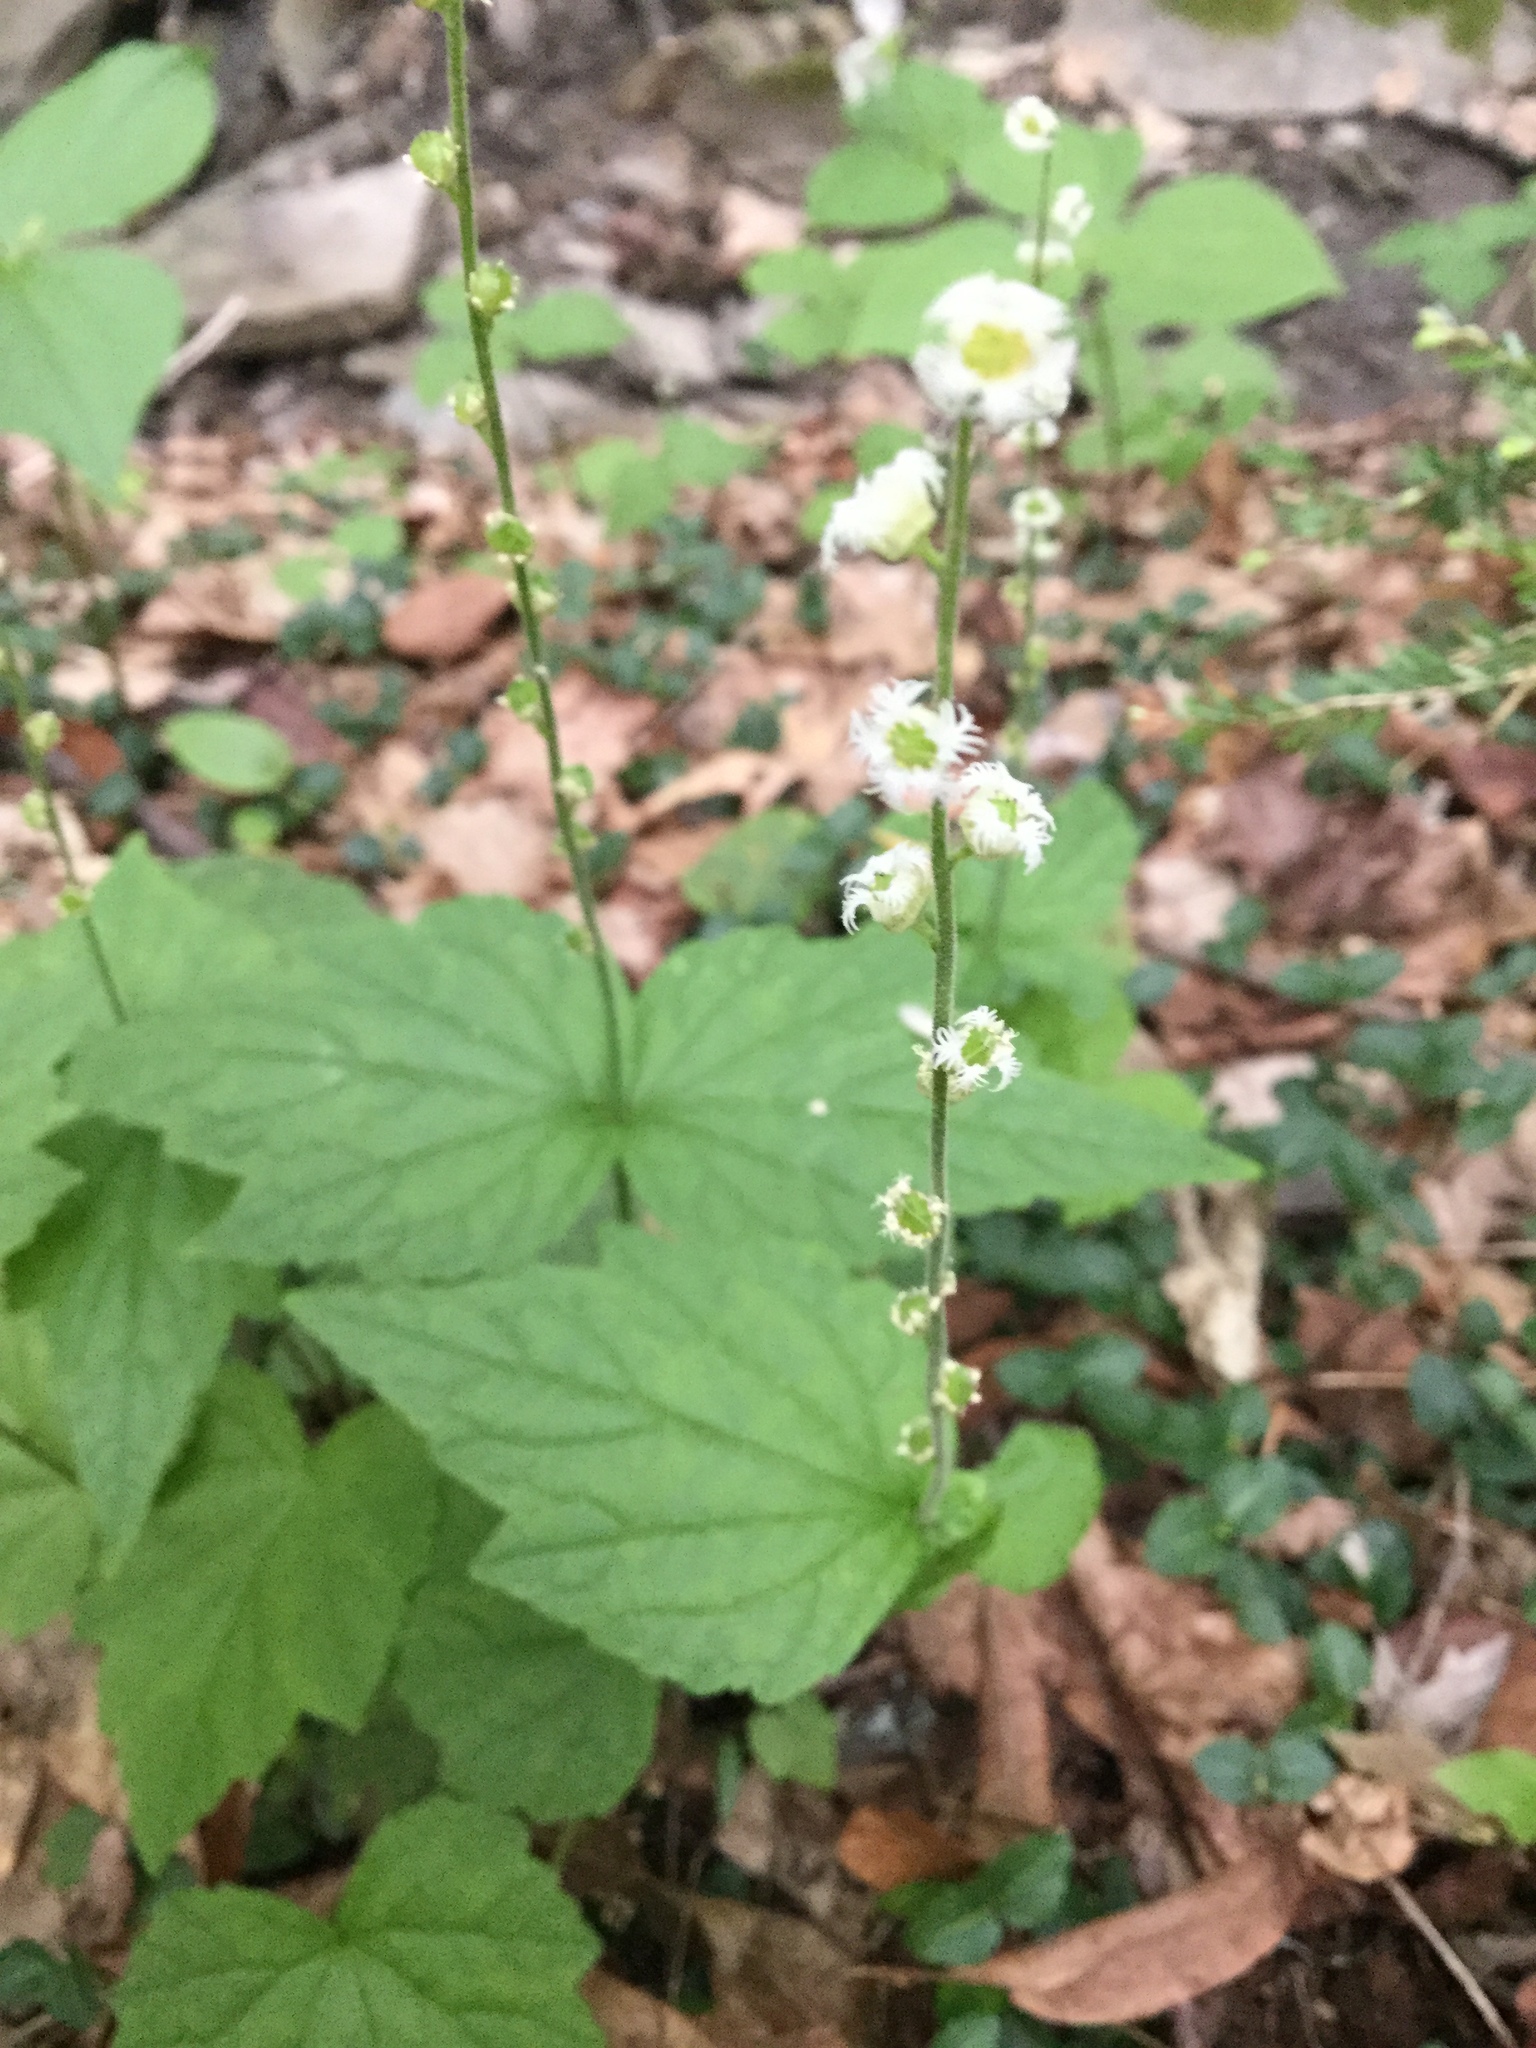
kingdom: Plantae
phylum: Tracheophyta
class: Magnoliopsida
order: Saxifragales
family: Saxifragaceae
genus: Mitella
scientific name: Mitella diphylla
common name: Coolwort
